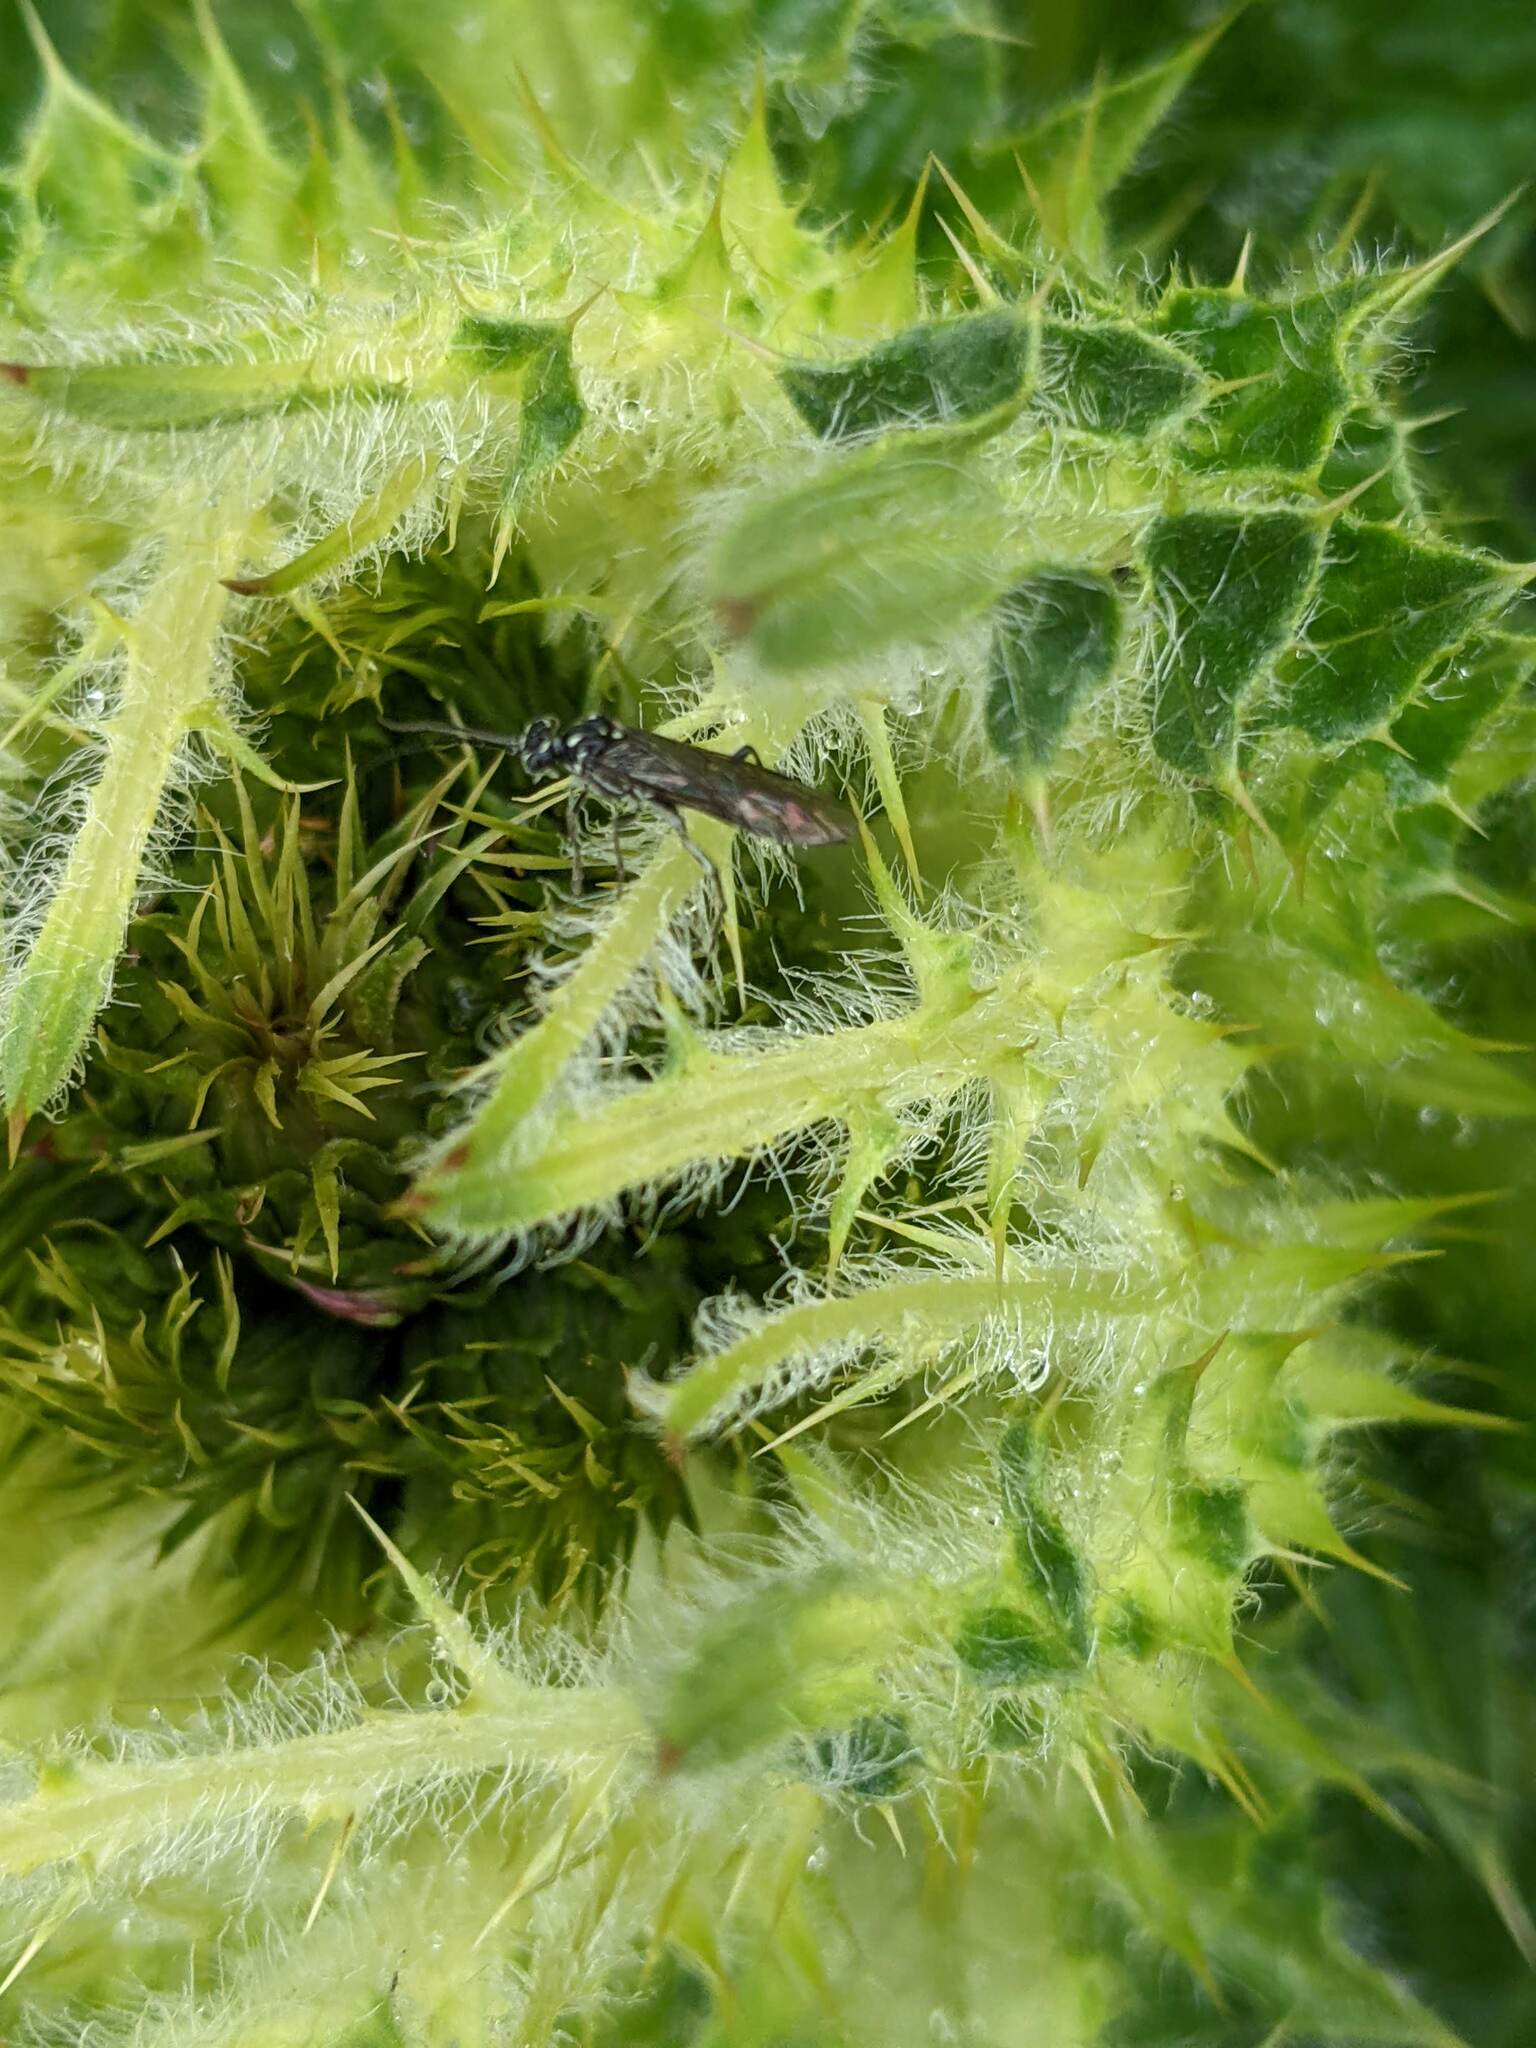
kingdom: Animalia
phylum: Arthropoda
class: Insecta
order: Hymenoptera
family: Tenthredinidae
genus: Pachyprotasis
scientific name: Pachyprotasis rapae
